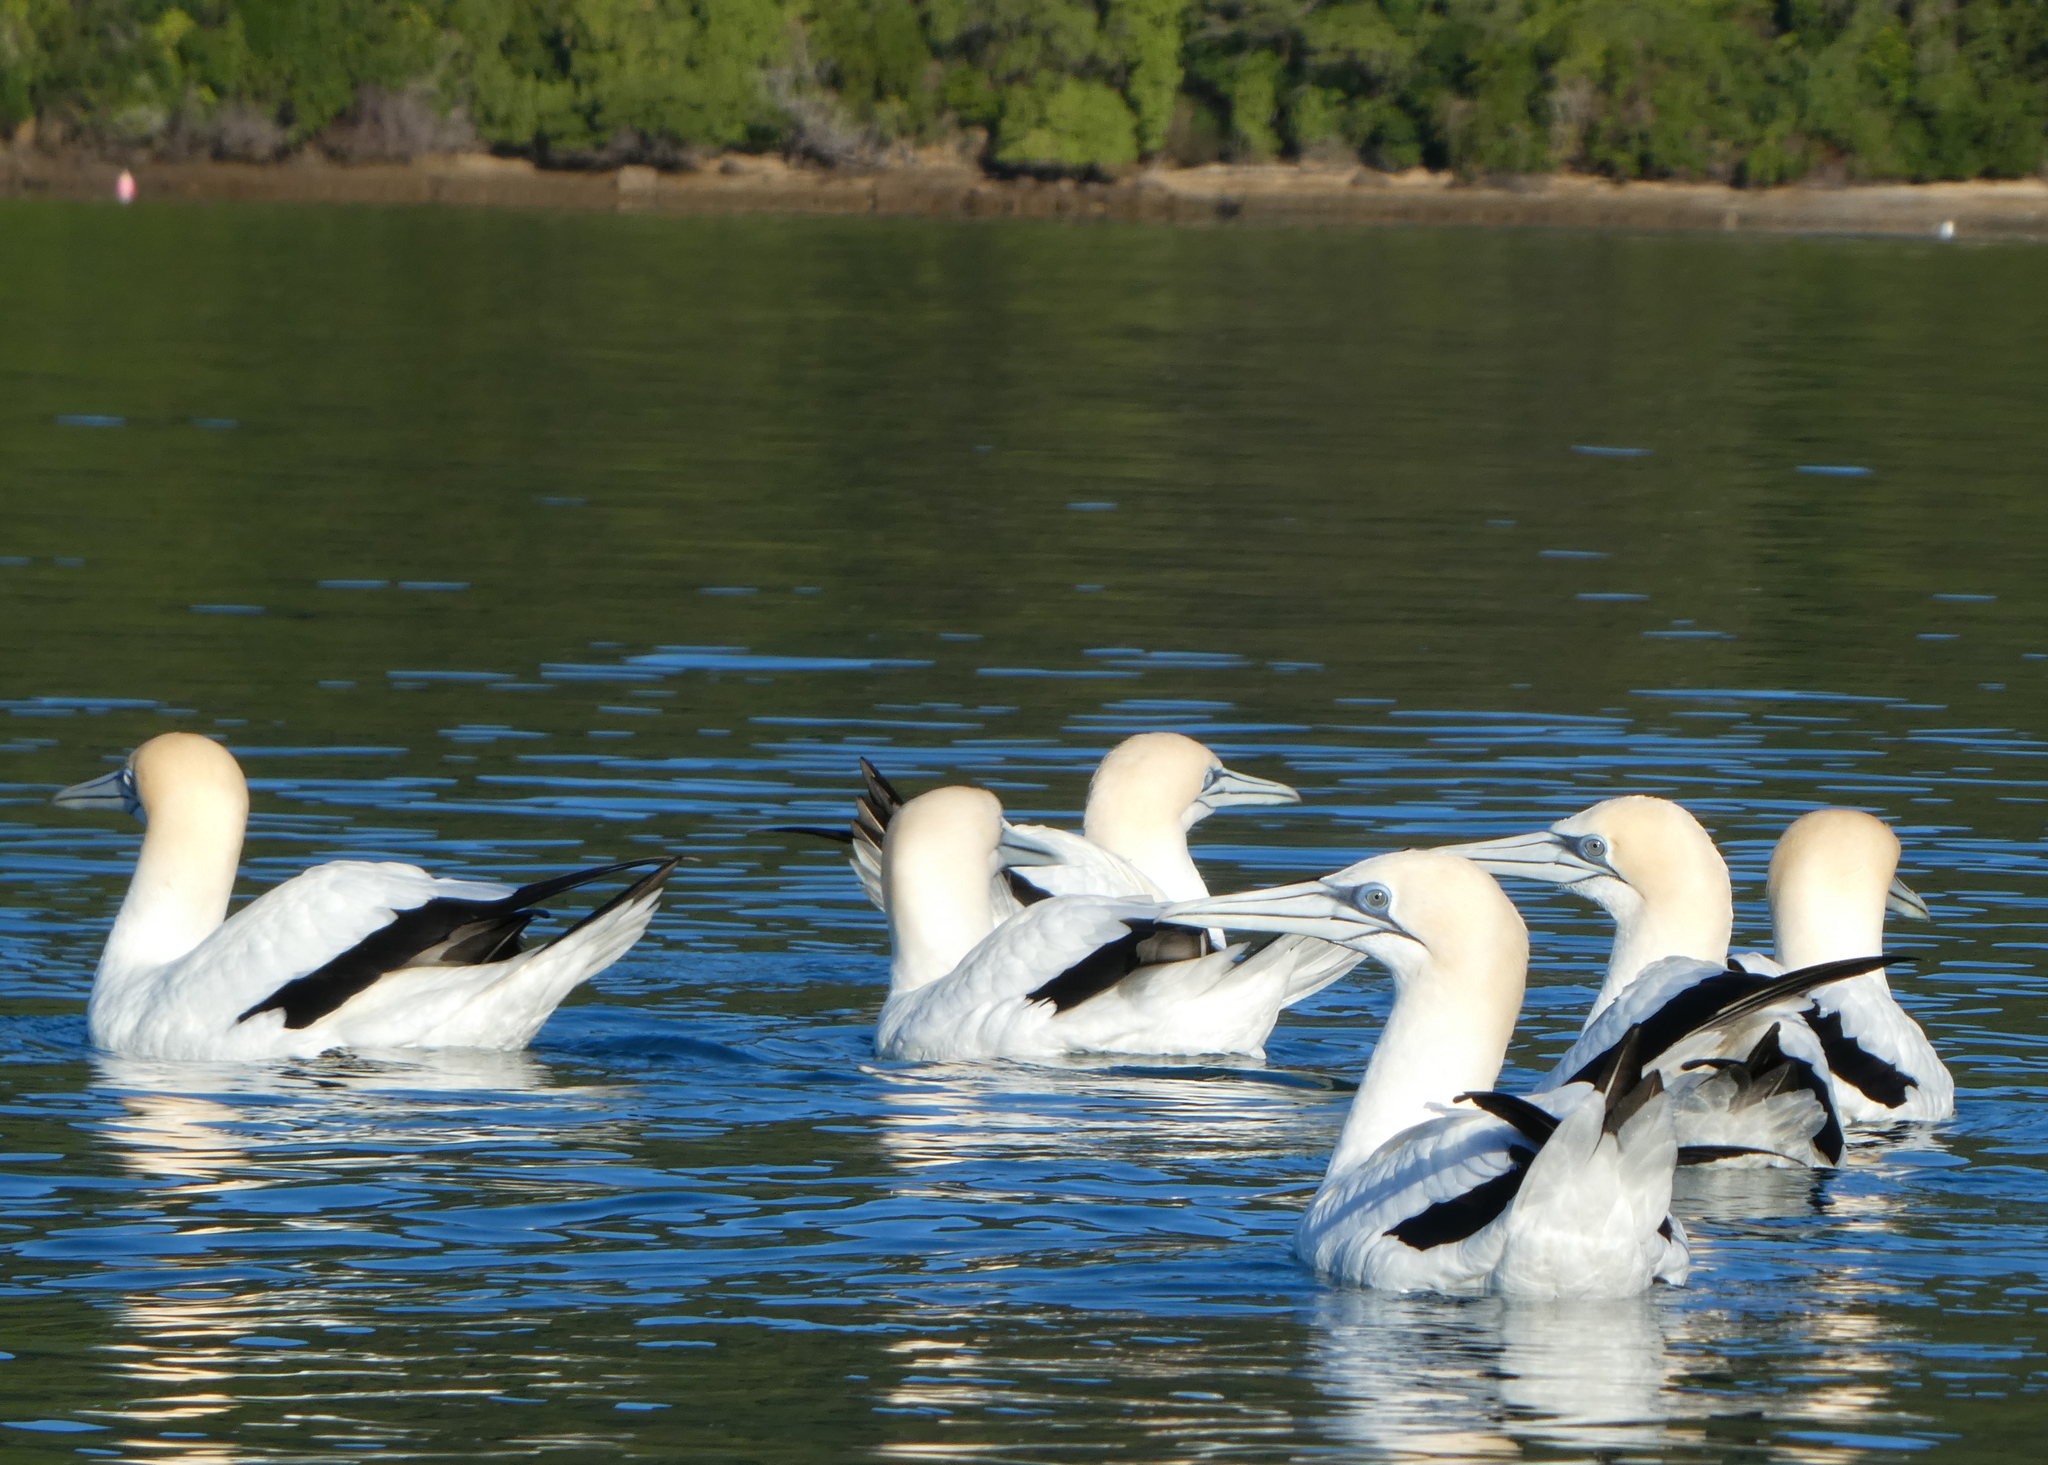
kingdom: Animalia
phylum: Chordata
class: Aves
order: Suliformes
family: Sulidae
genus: Morus
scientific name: Morus serrator
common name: Australasian gannet
